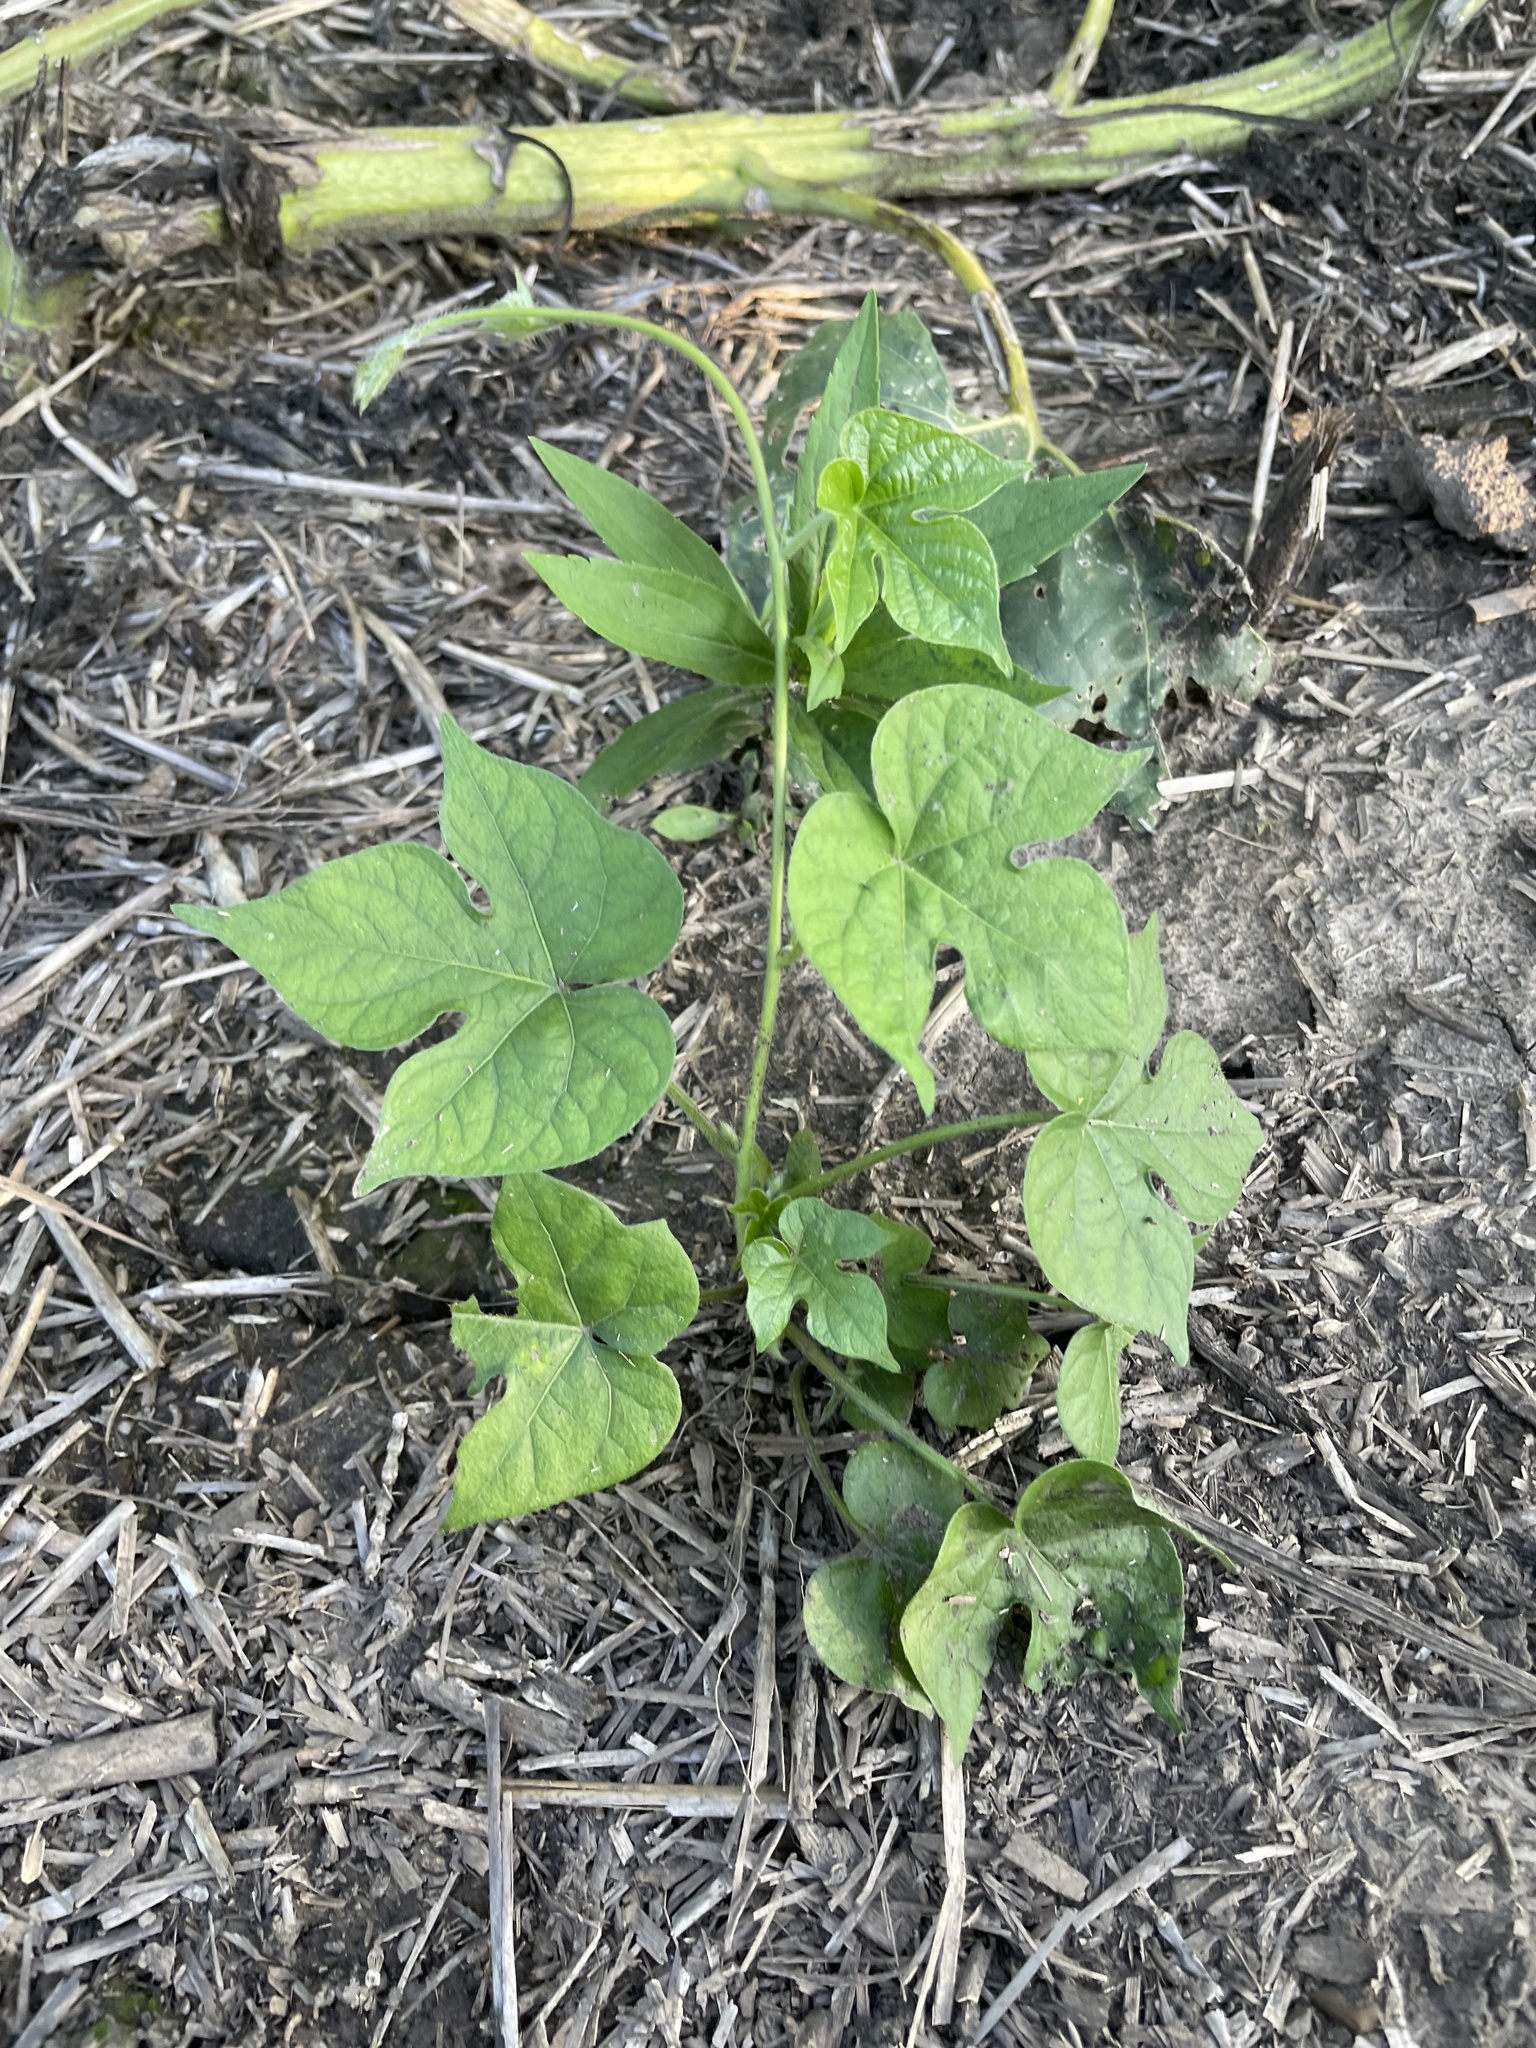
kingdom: Plantae
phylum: Tracheophyta
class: Magnoliopsida
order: Solanales
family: Convolvulaceae
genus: Ipomoea
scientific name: Ipomoea hederacea
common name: Ivy-leaved morning-glory
